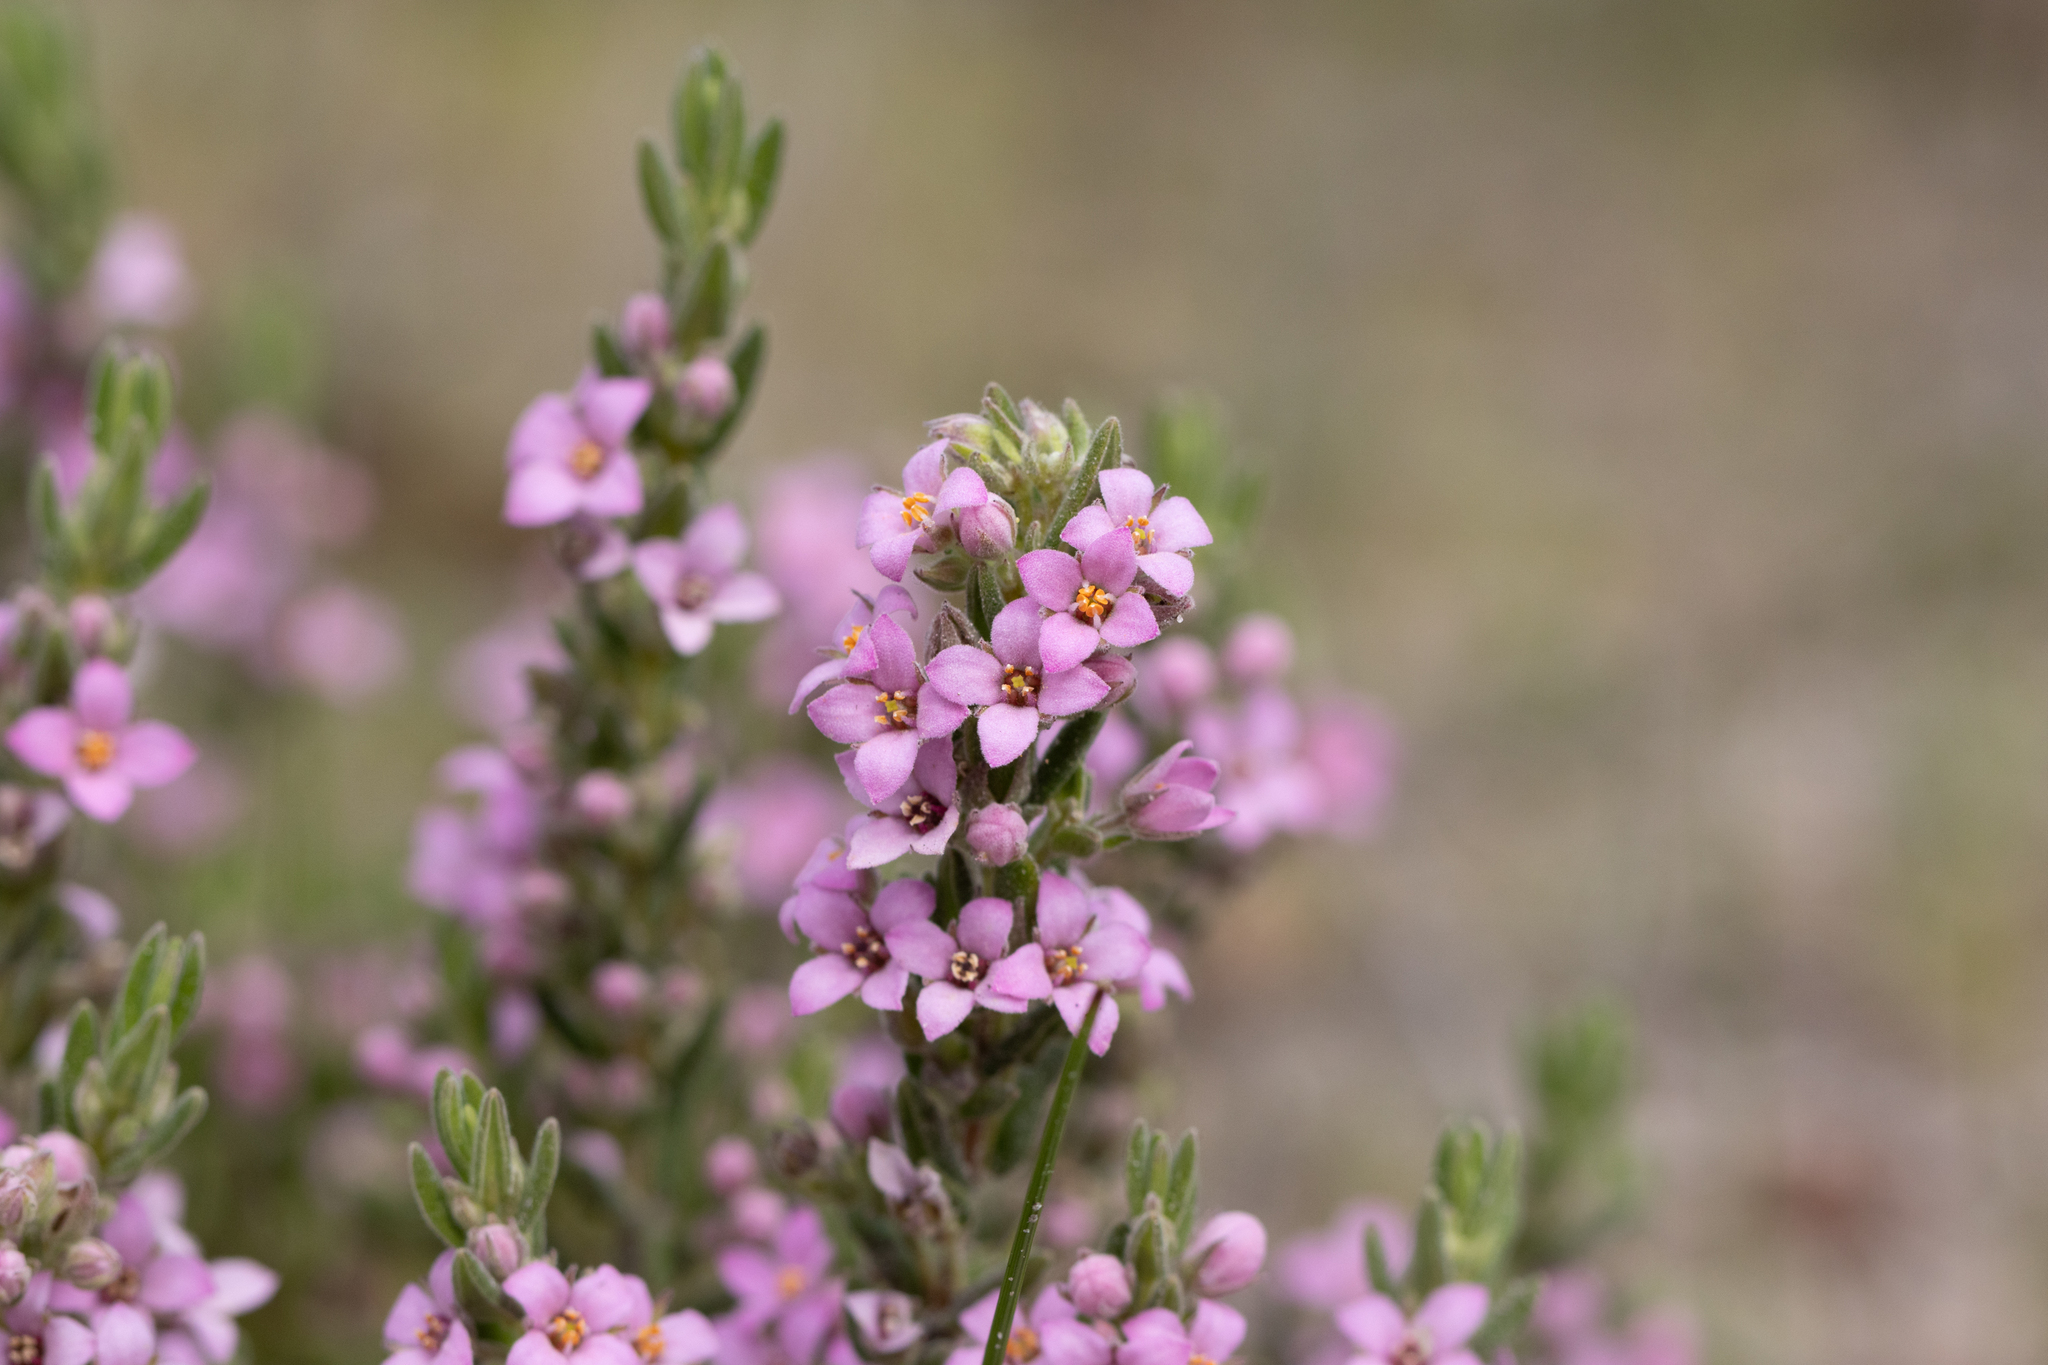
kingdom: Plantae
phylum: Tracheophyta
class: Magnoliopsida
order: Sapindales
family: Rutaceae
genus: Zieria
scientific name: Zieria veronicea
